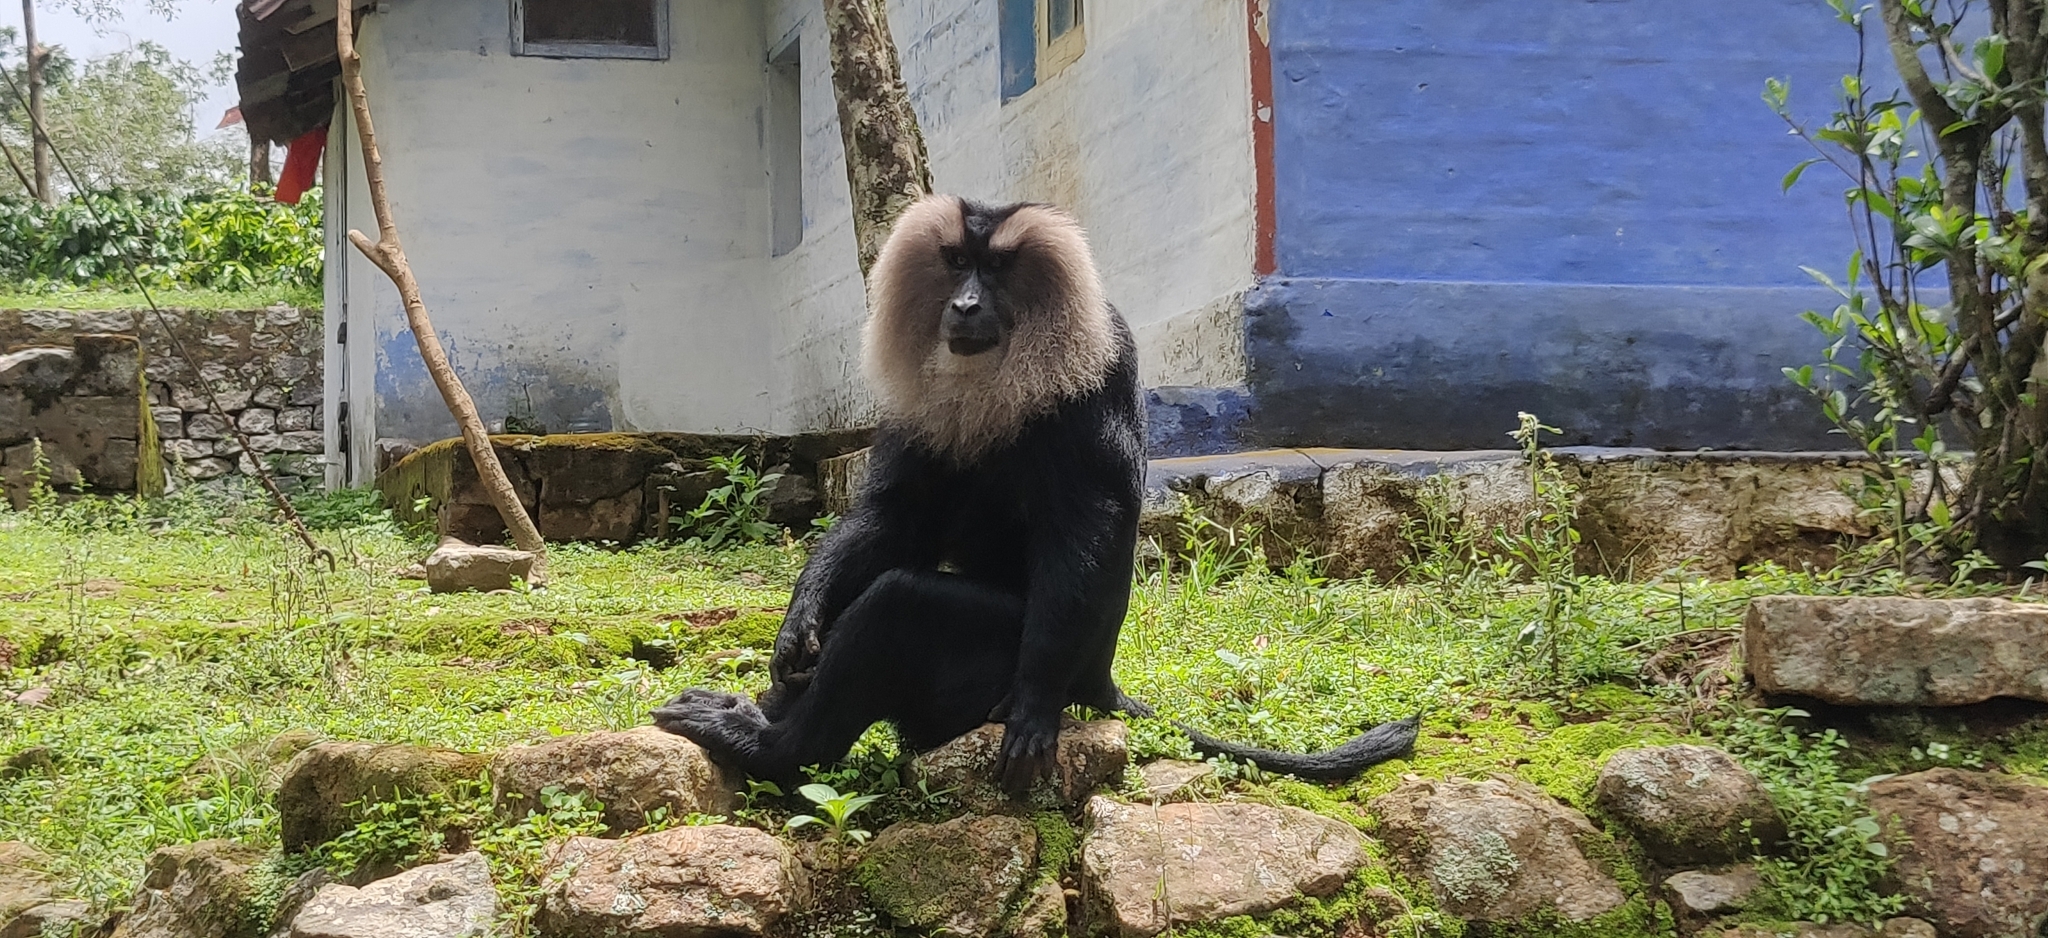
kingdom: Animalia
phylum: Chordata
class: Mammalia
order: Primates
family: Cercopithecidae
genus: Macaca
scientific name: Macaca silenus
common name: Lion-tailed macaque
